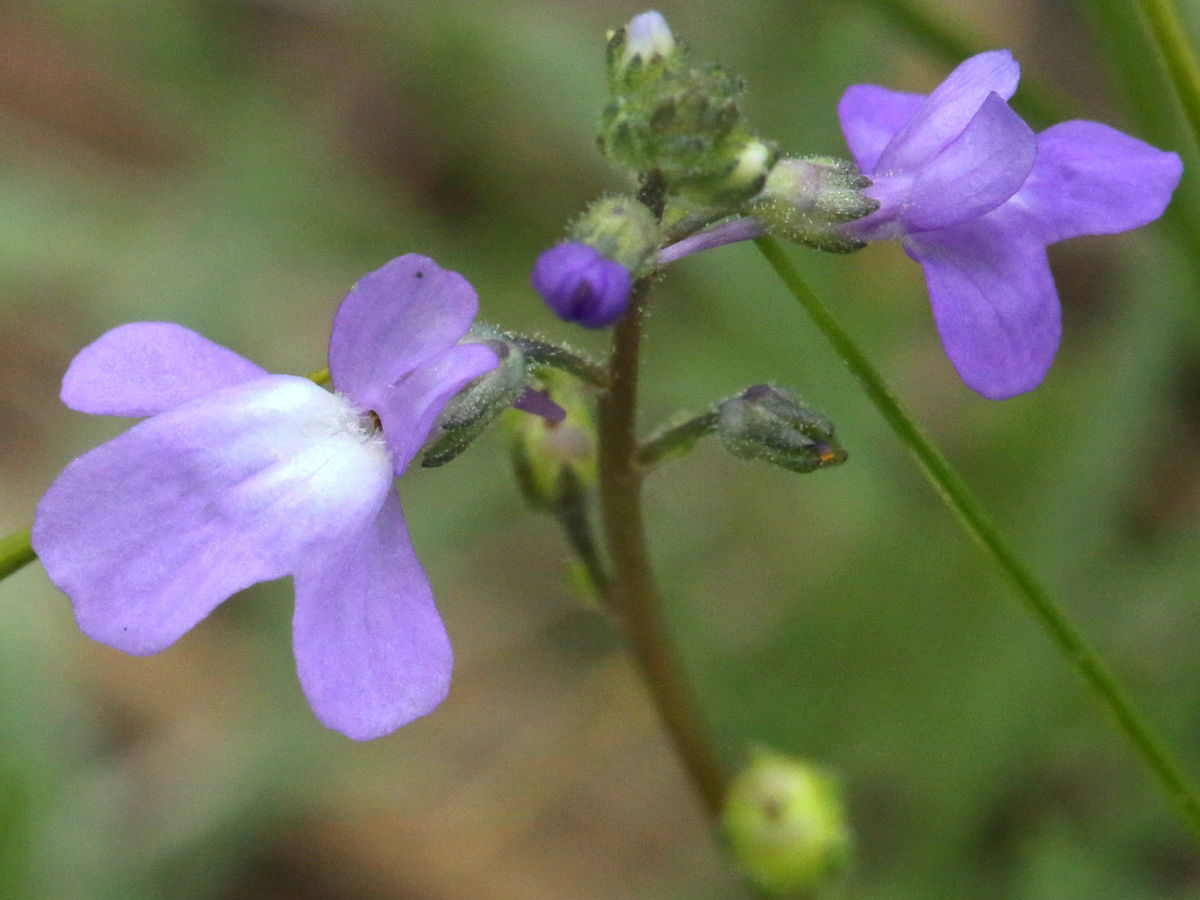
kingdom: Plantae
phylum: Tracheophyta
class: Magnoliopsida
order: Lamiales
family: Plantaginaceae
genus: Nuttallanthus
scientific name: Nuttallanthus canadensis
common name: Blue toadflax
